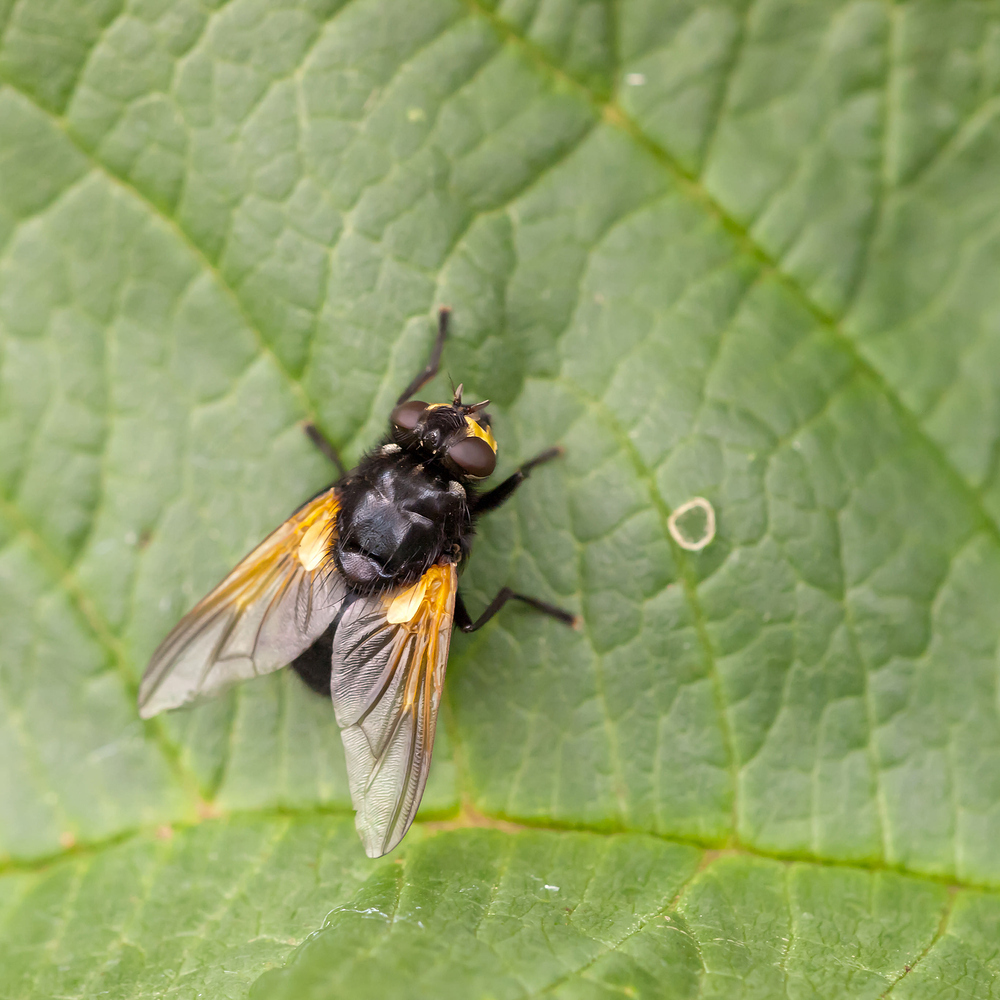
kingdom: Animalia
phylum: Arthropoda
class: Insecta
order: Diptera
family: Muscidae
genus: Mesembrina
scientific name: Mesembrina meridiana
